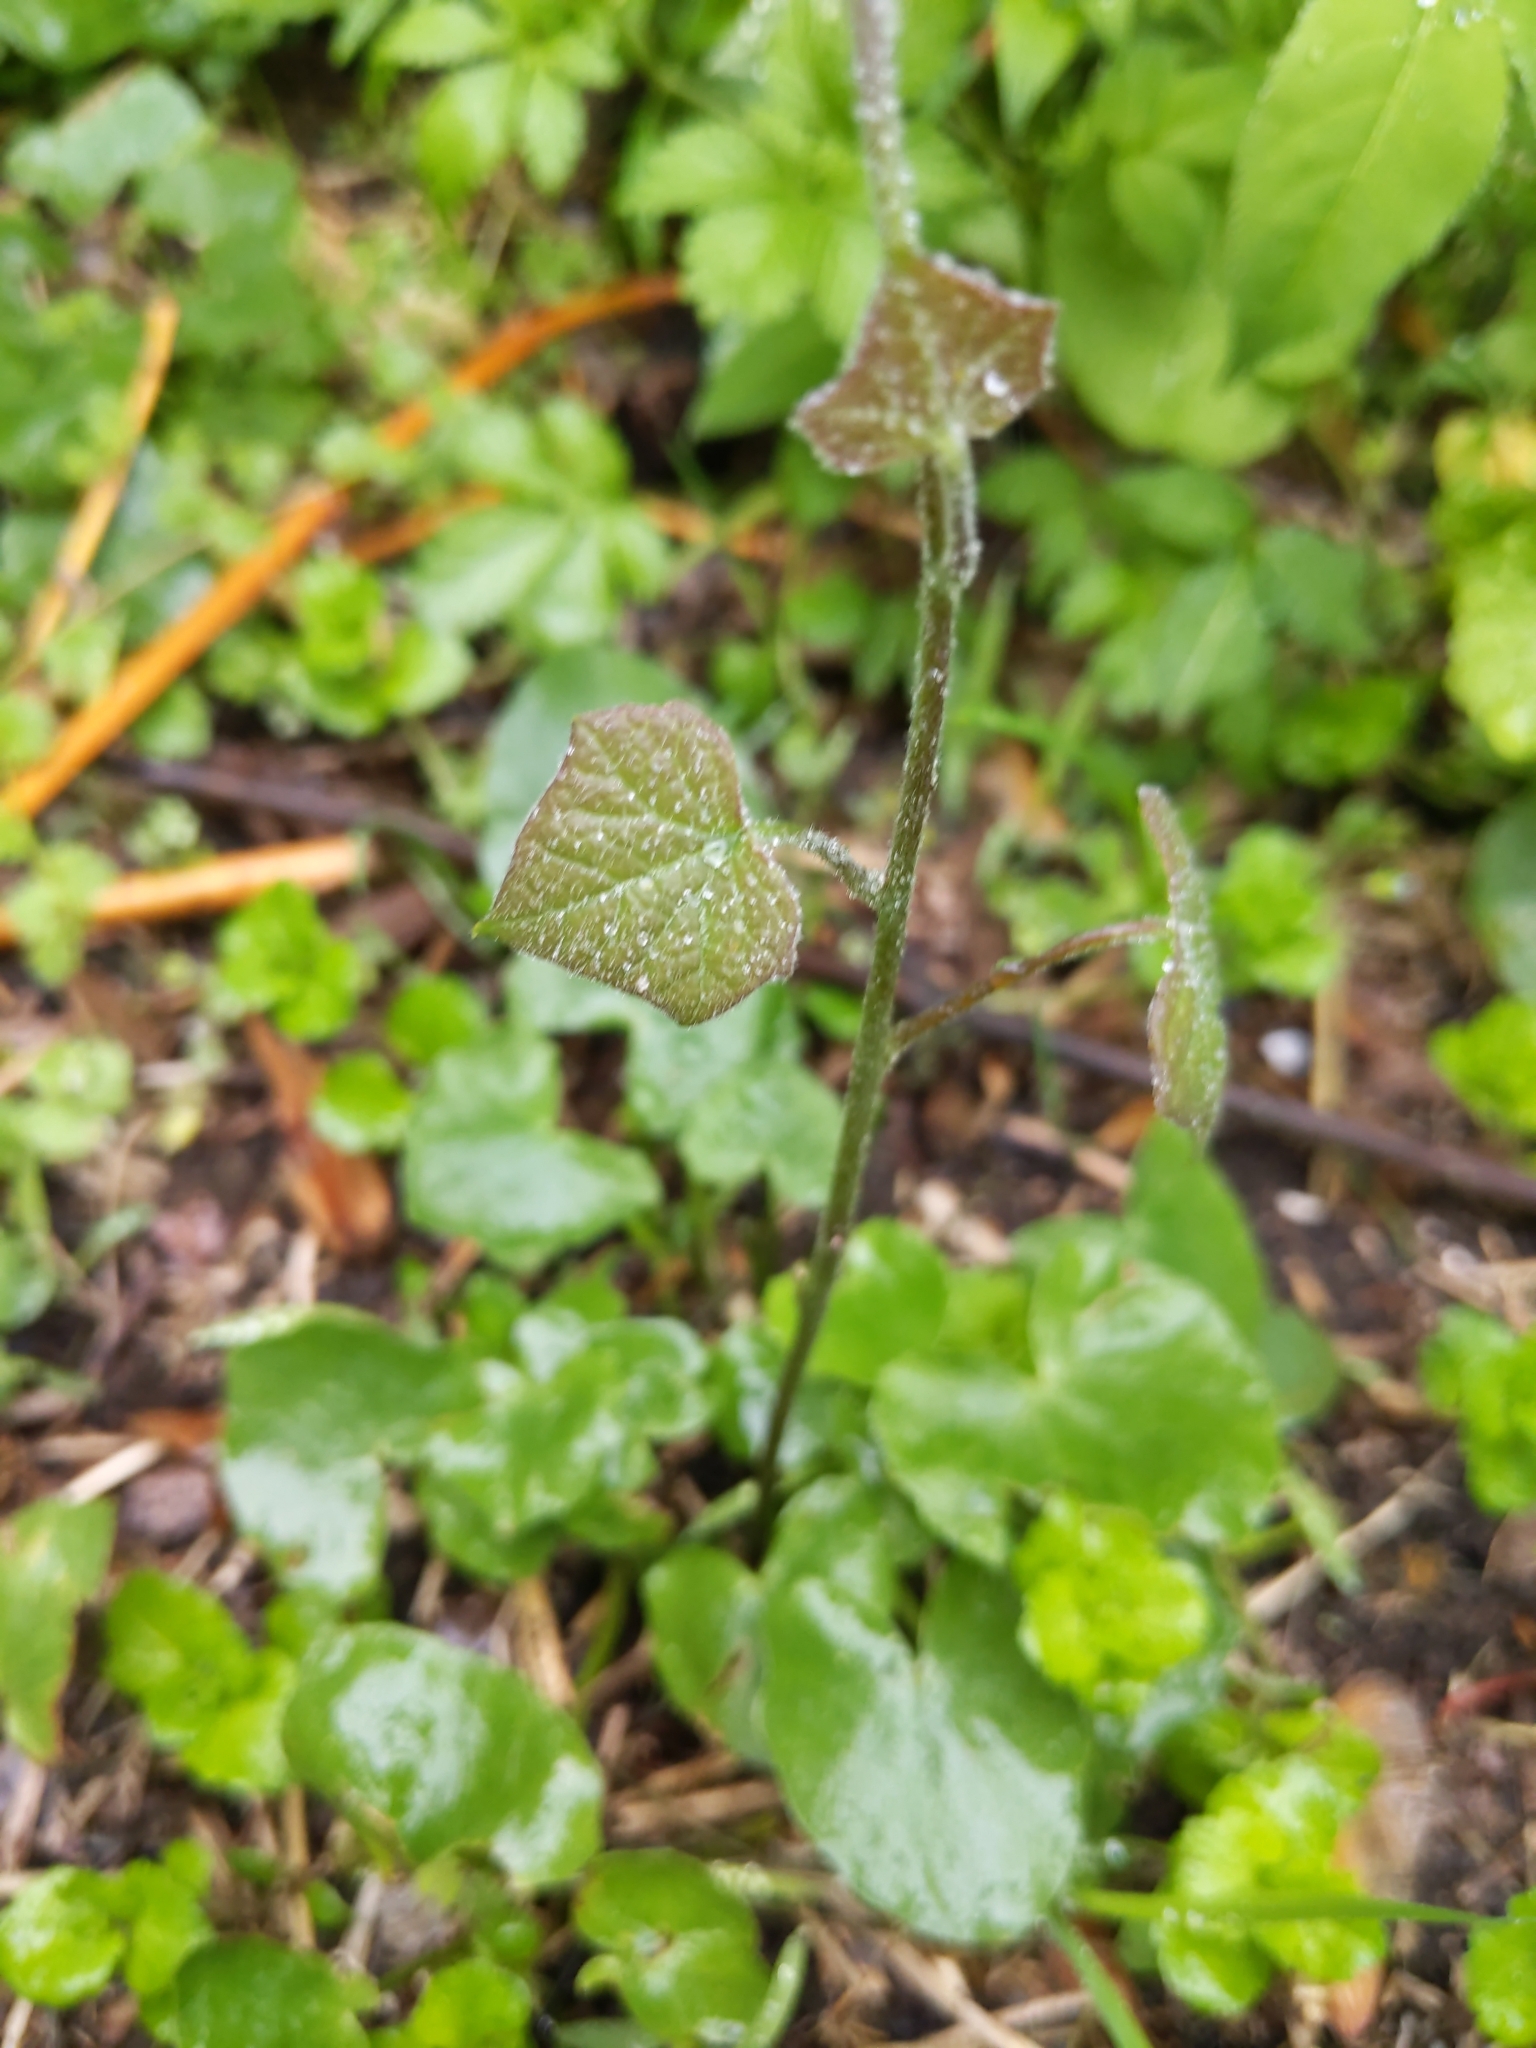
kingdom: Plantae
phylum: Tracheophyta
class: Magnoliopsida
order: Ranunculales
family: Menispermaceae
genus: Menispermum
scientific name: Menispermum canadense
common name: Moonseed
